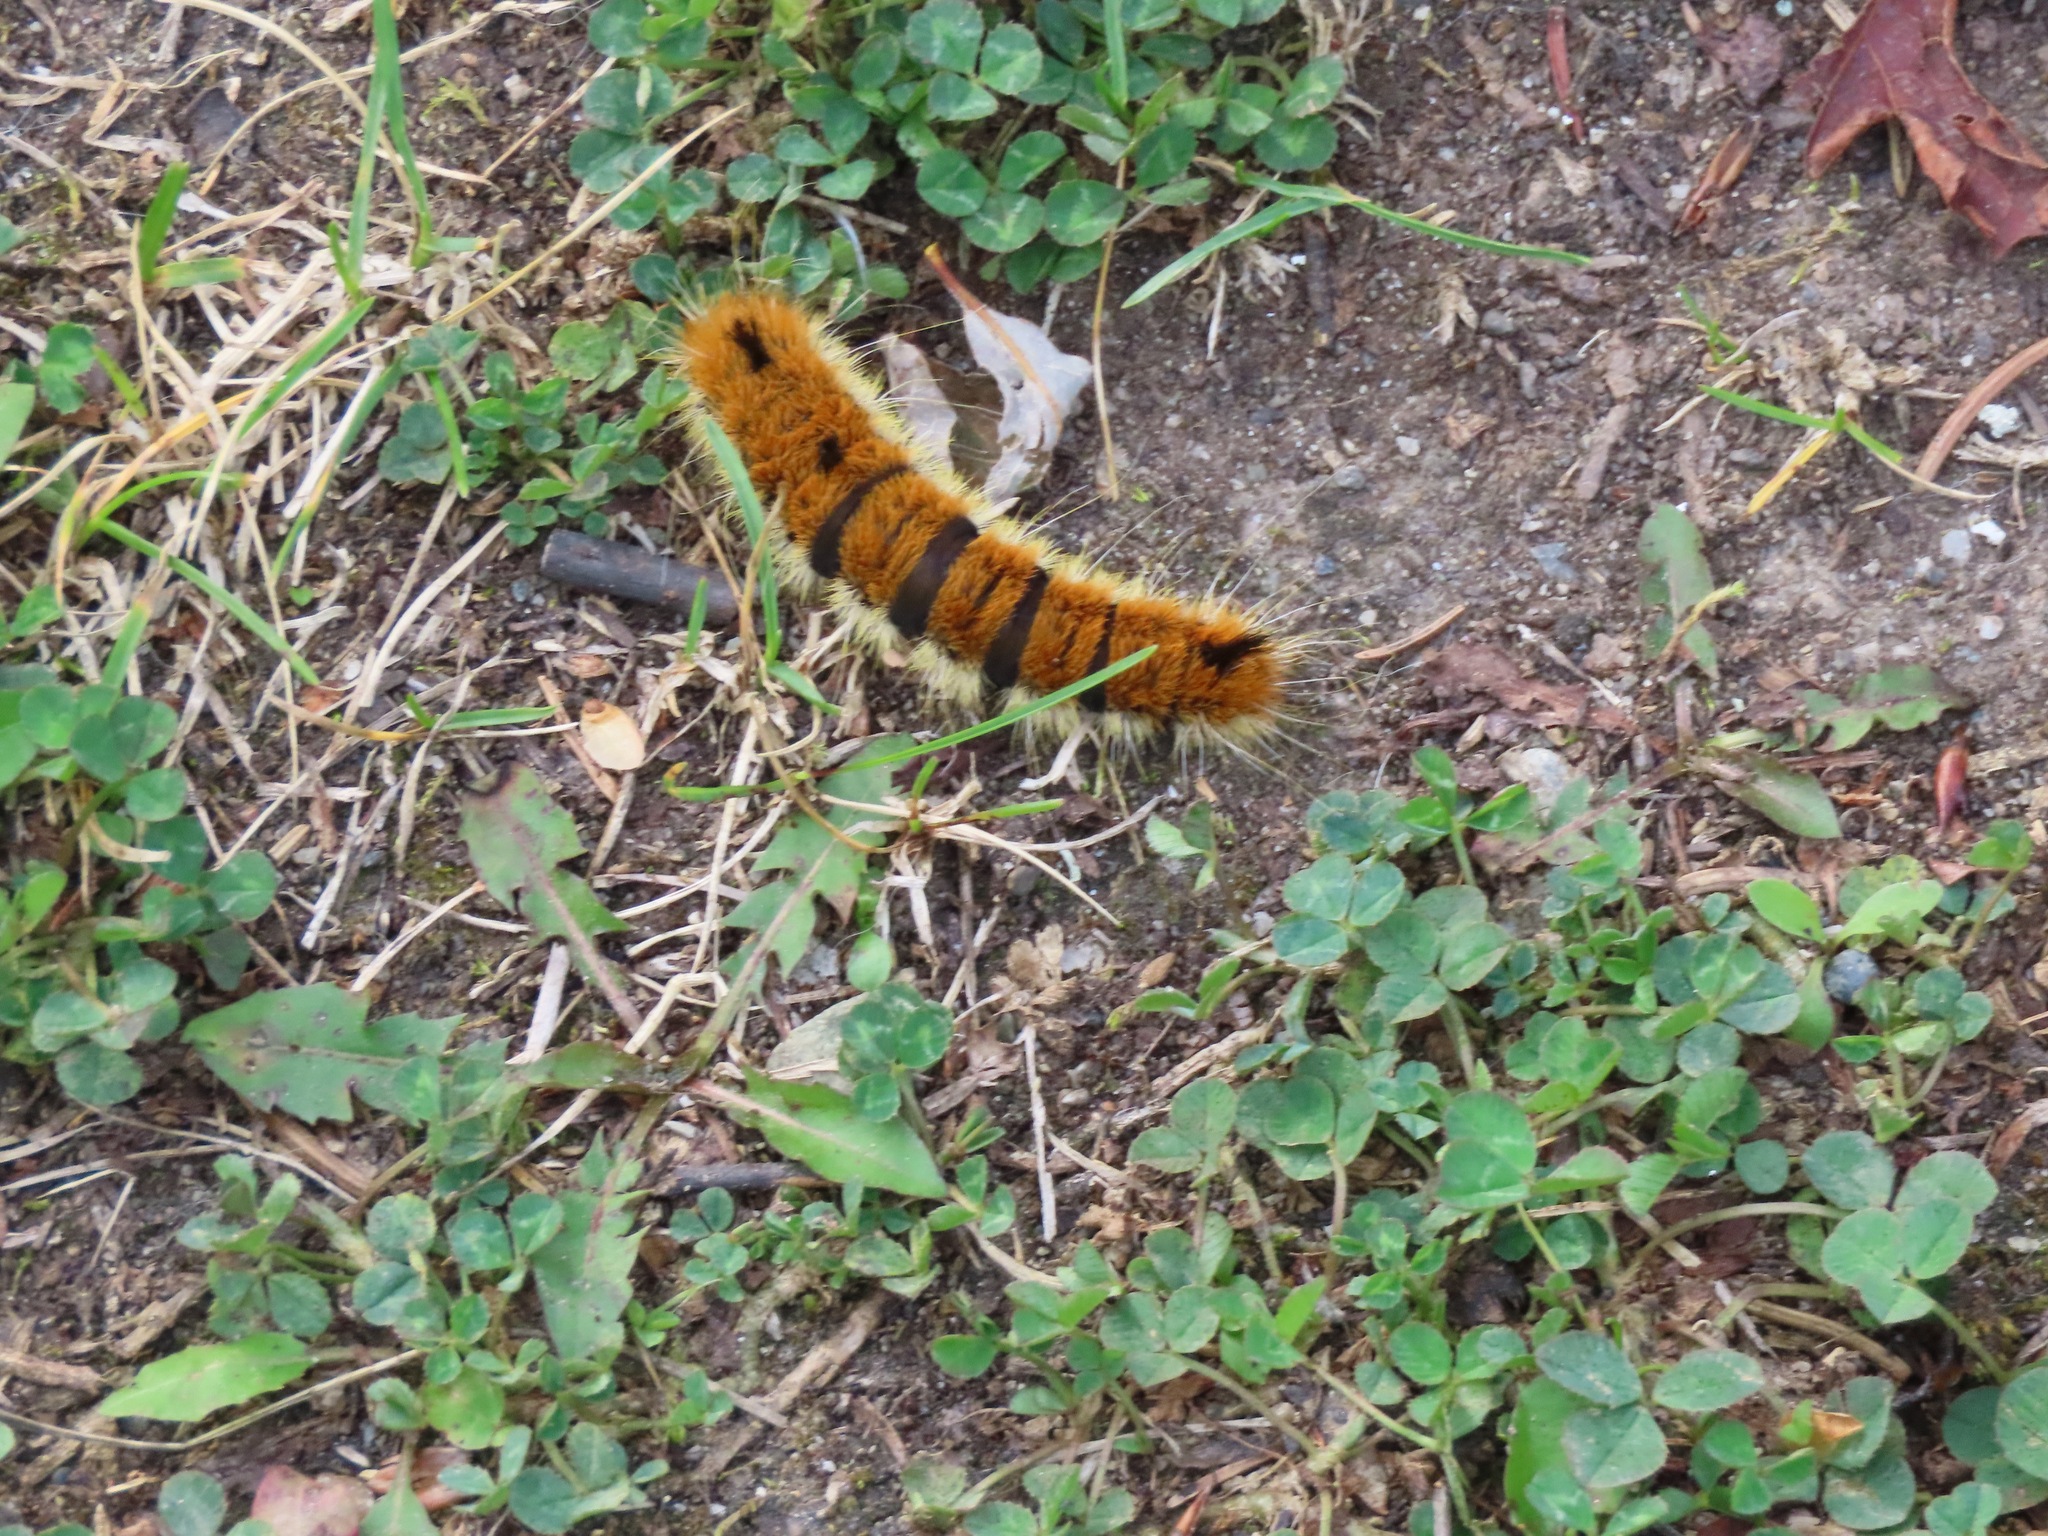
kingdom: Animalia
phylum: Arthropoda
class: Insecta
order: Lepidoptera
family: Noctuidae
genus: Acronicta
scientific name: Acronicta insita
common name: Large gray dagger
